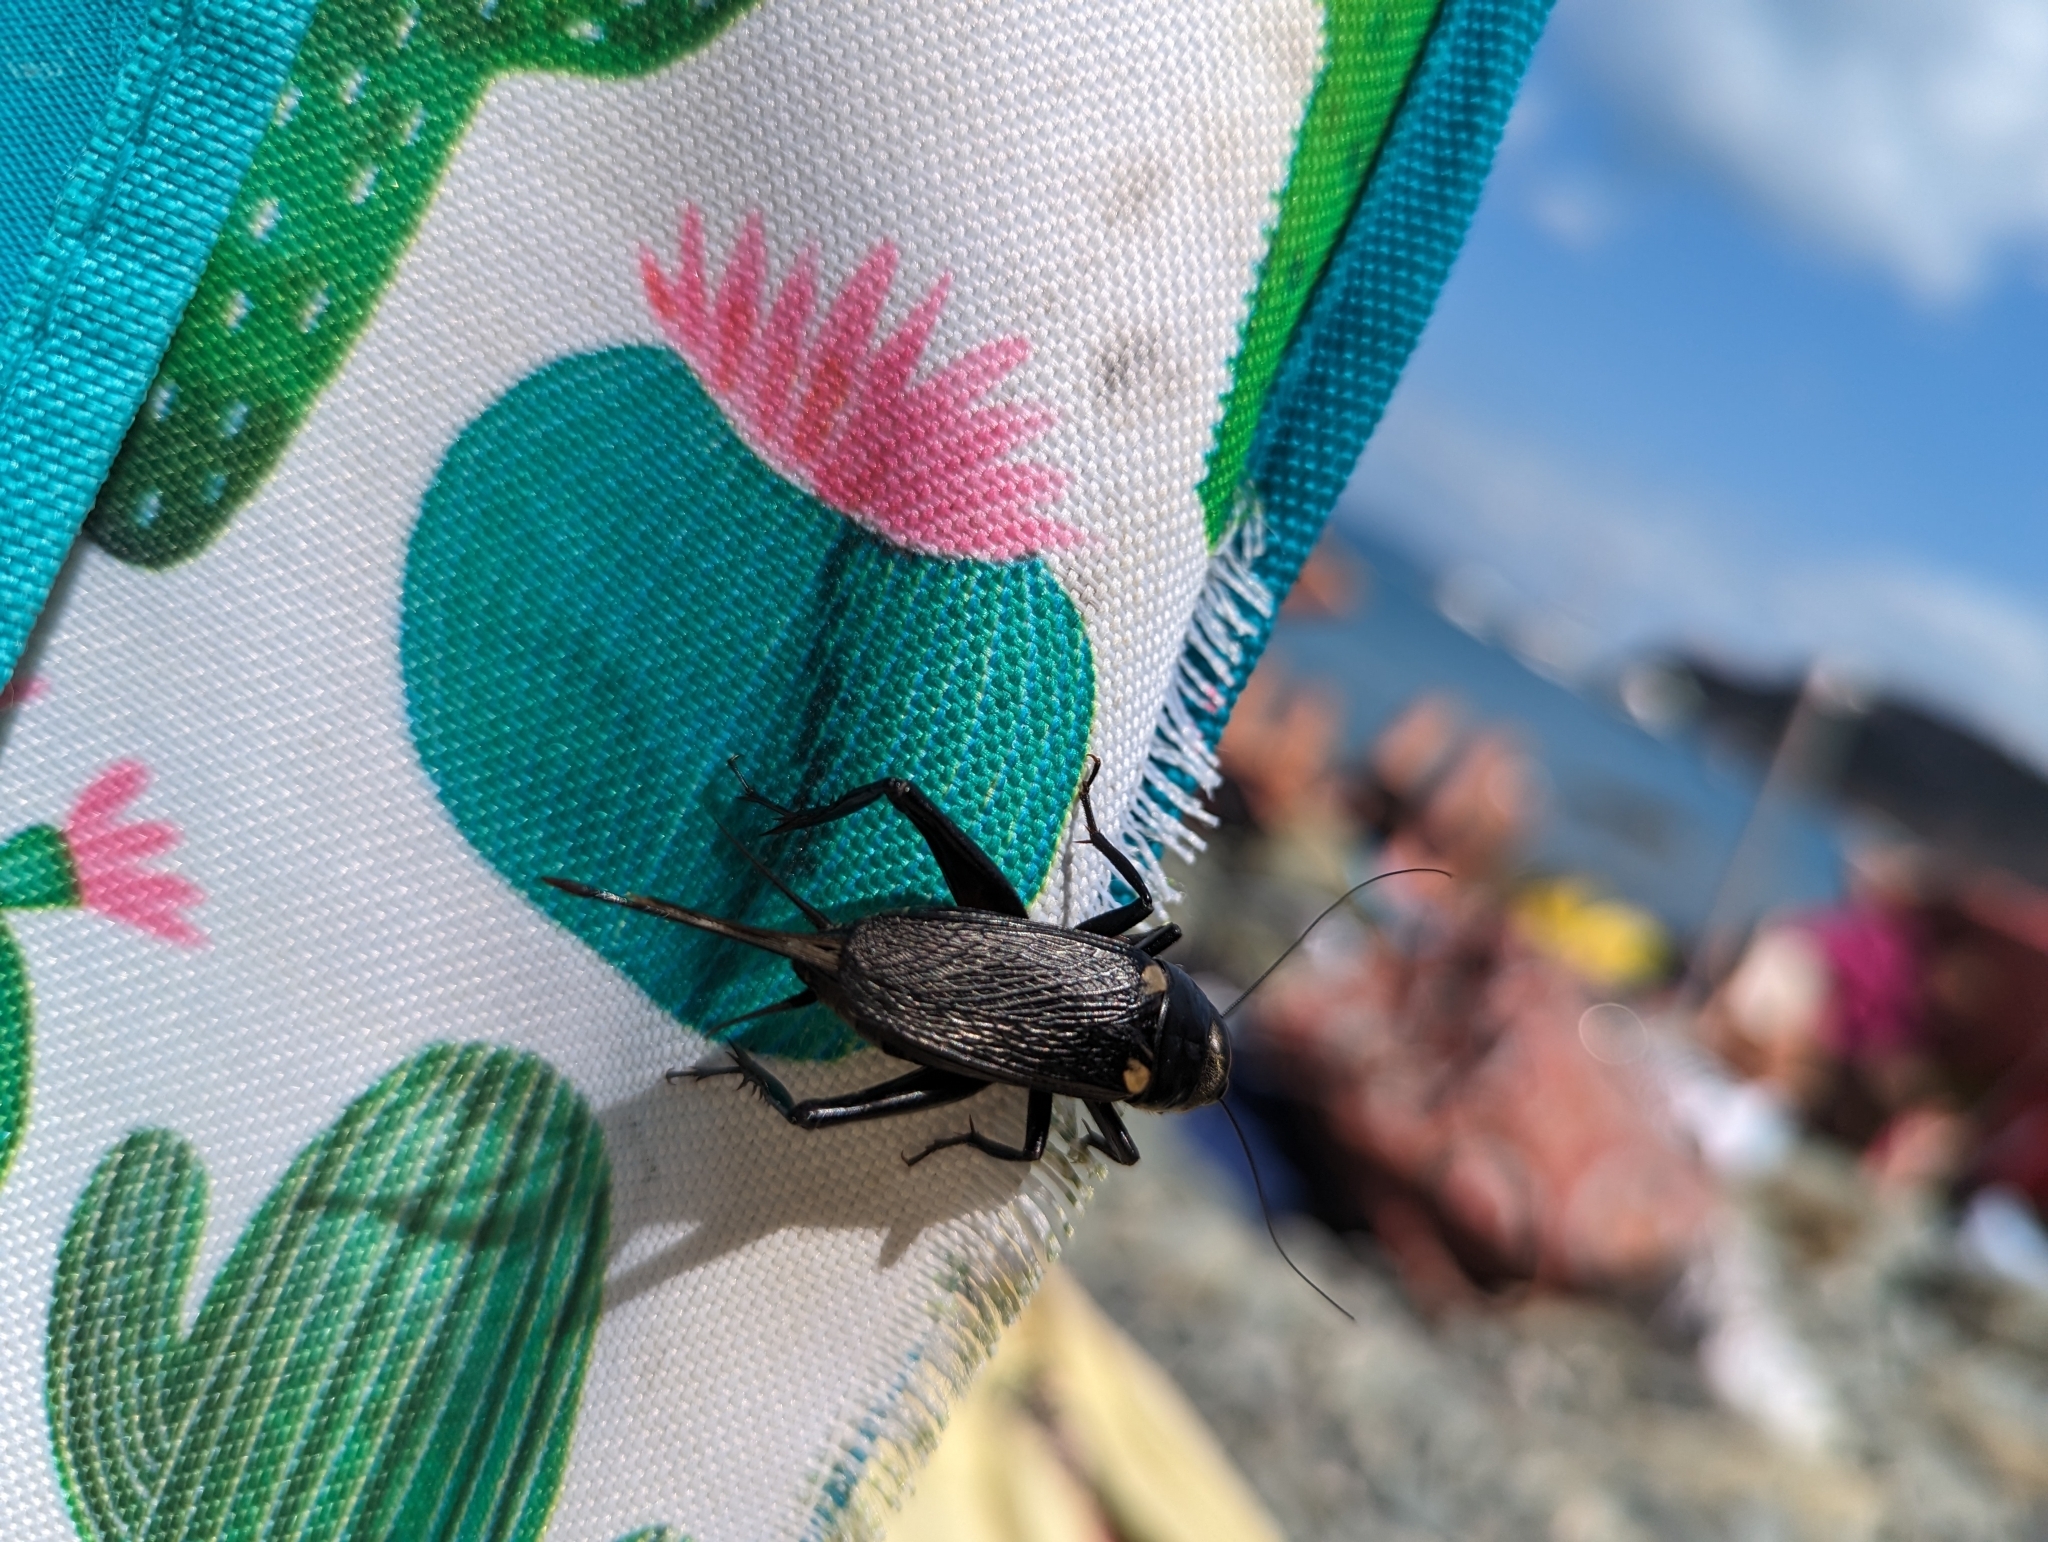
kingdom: Animalia
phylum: Arthropoda
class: Insecta
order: Orthoptera
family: Gryllidae
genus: Gryllus
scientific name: Gryllus bimaculatus
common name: Two-spotted cricket
